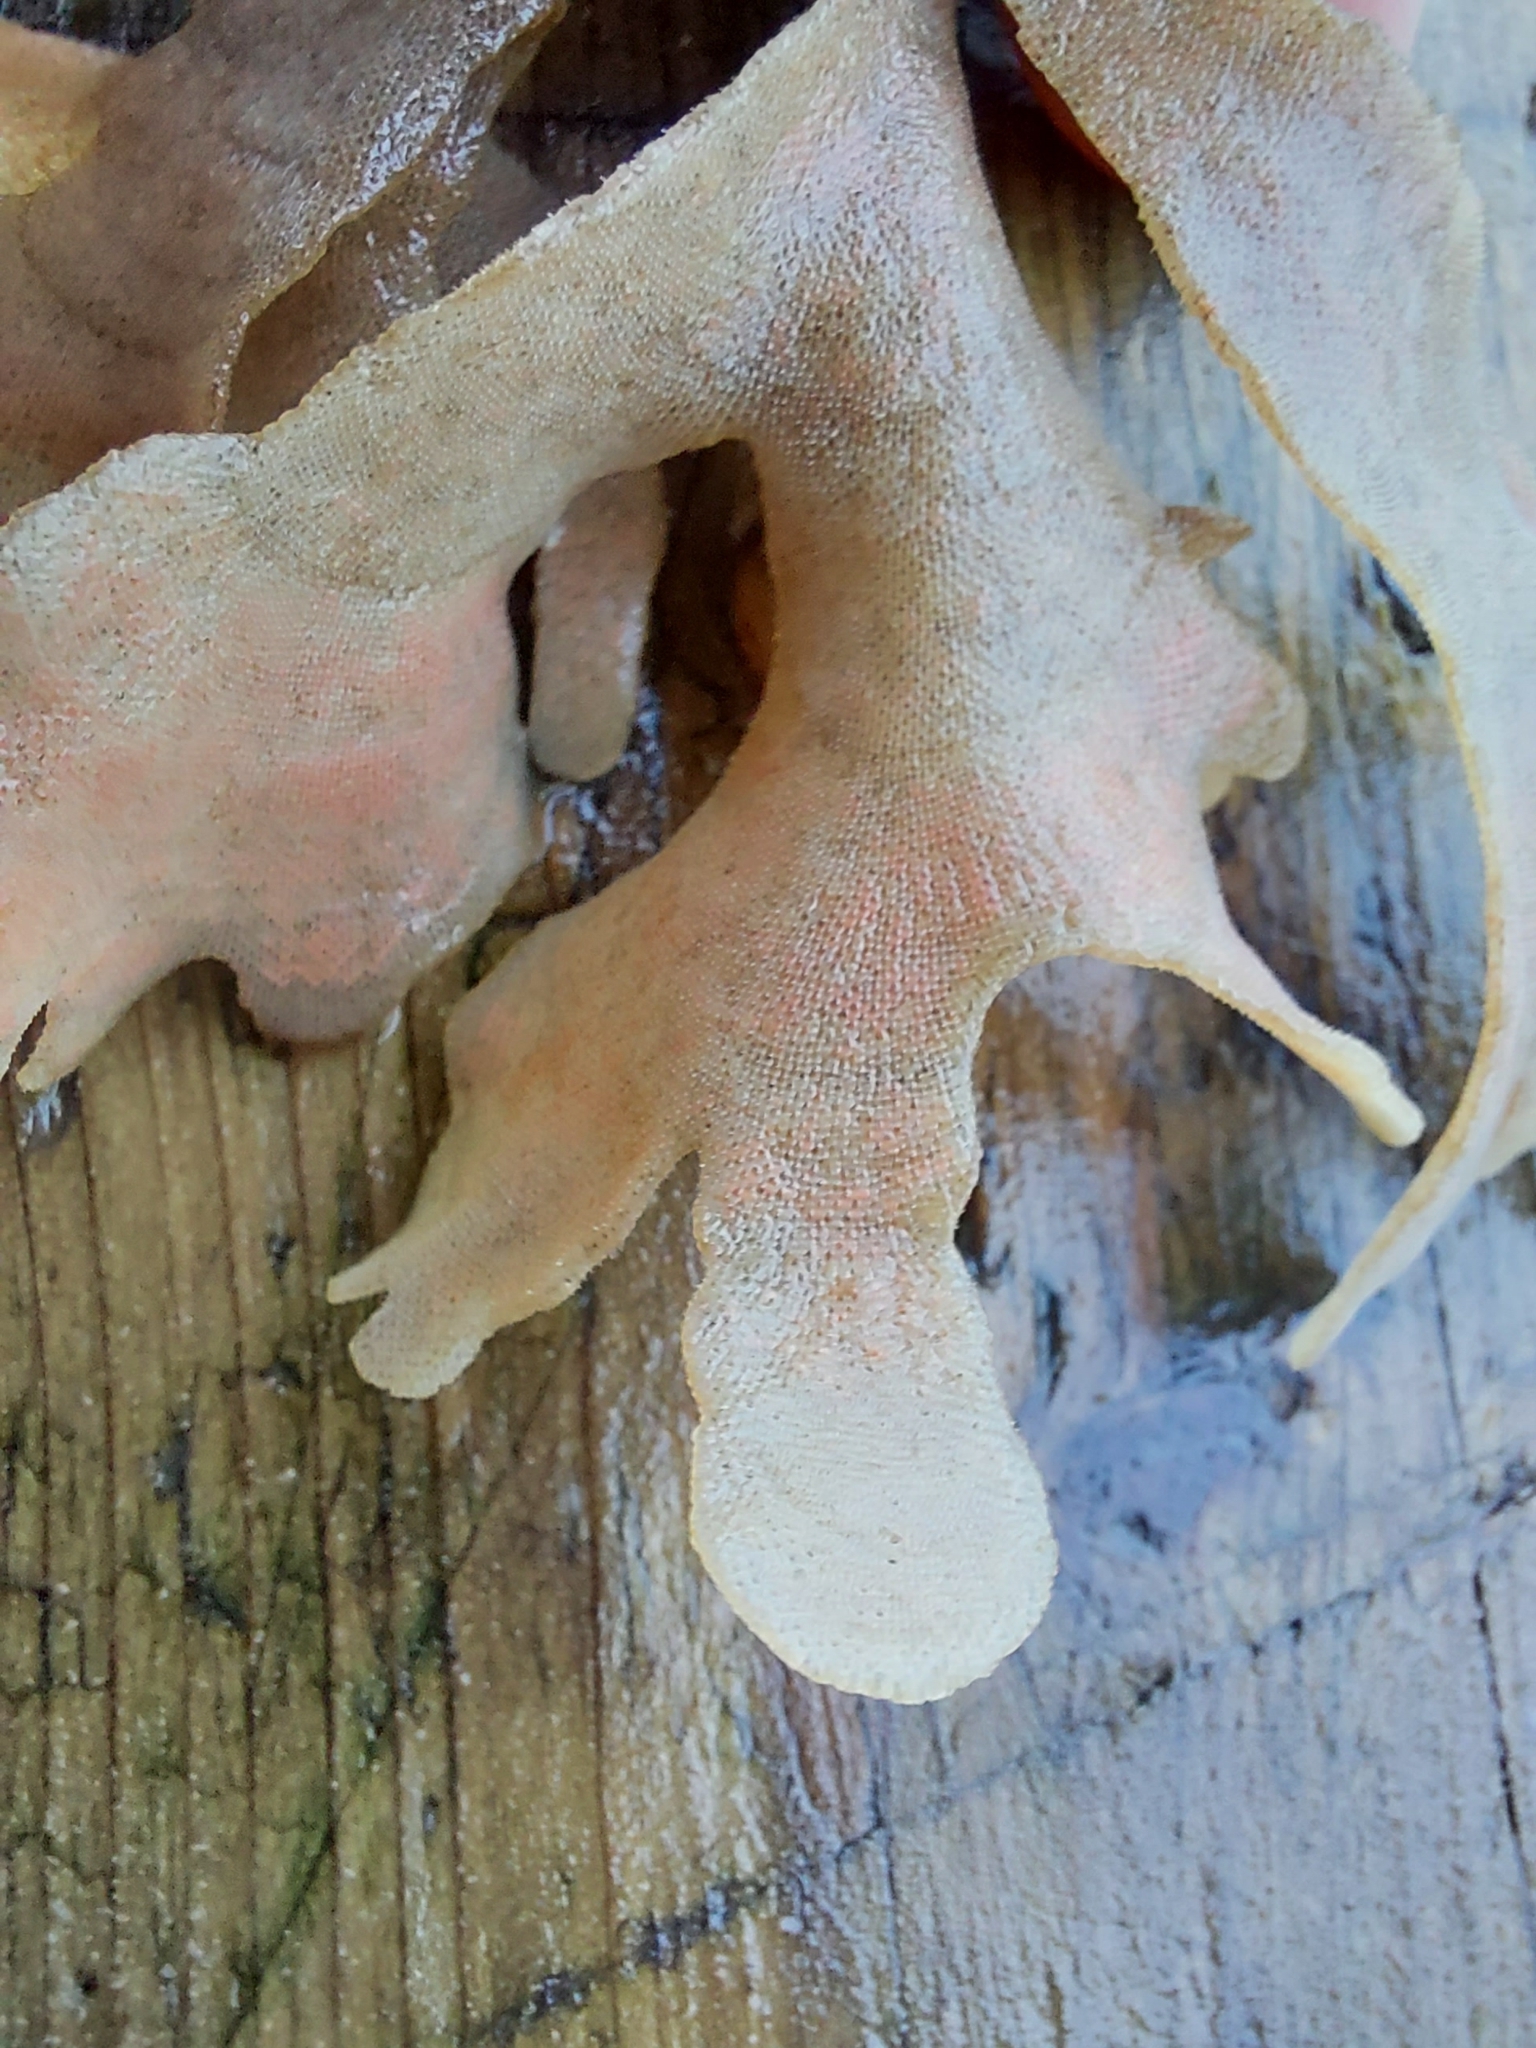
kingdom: Animalia
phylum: Bryozoa
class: Gymnolaemata
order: Cheilostomatida
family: Flustridae
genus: Flustra
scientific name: Flustra foliacea
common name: Hornwrack
